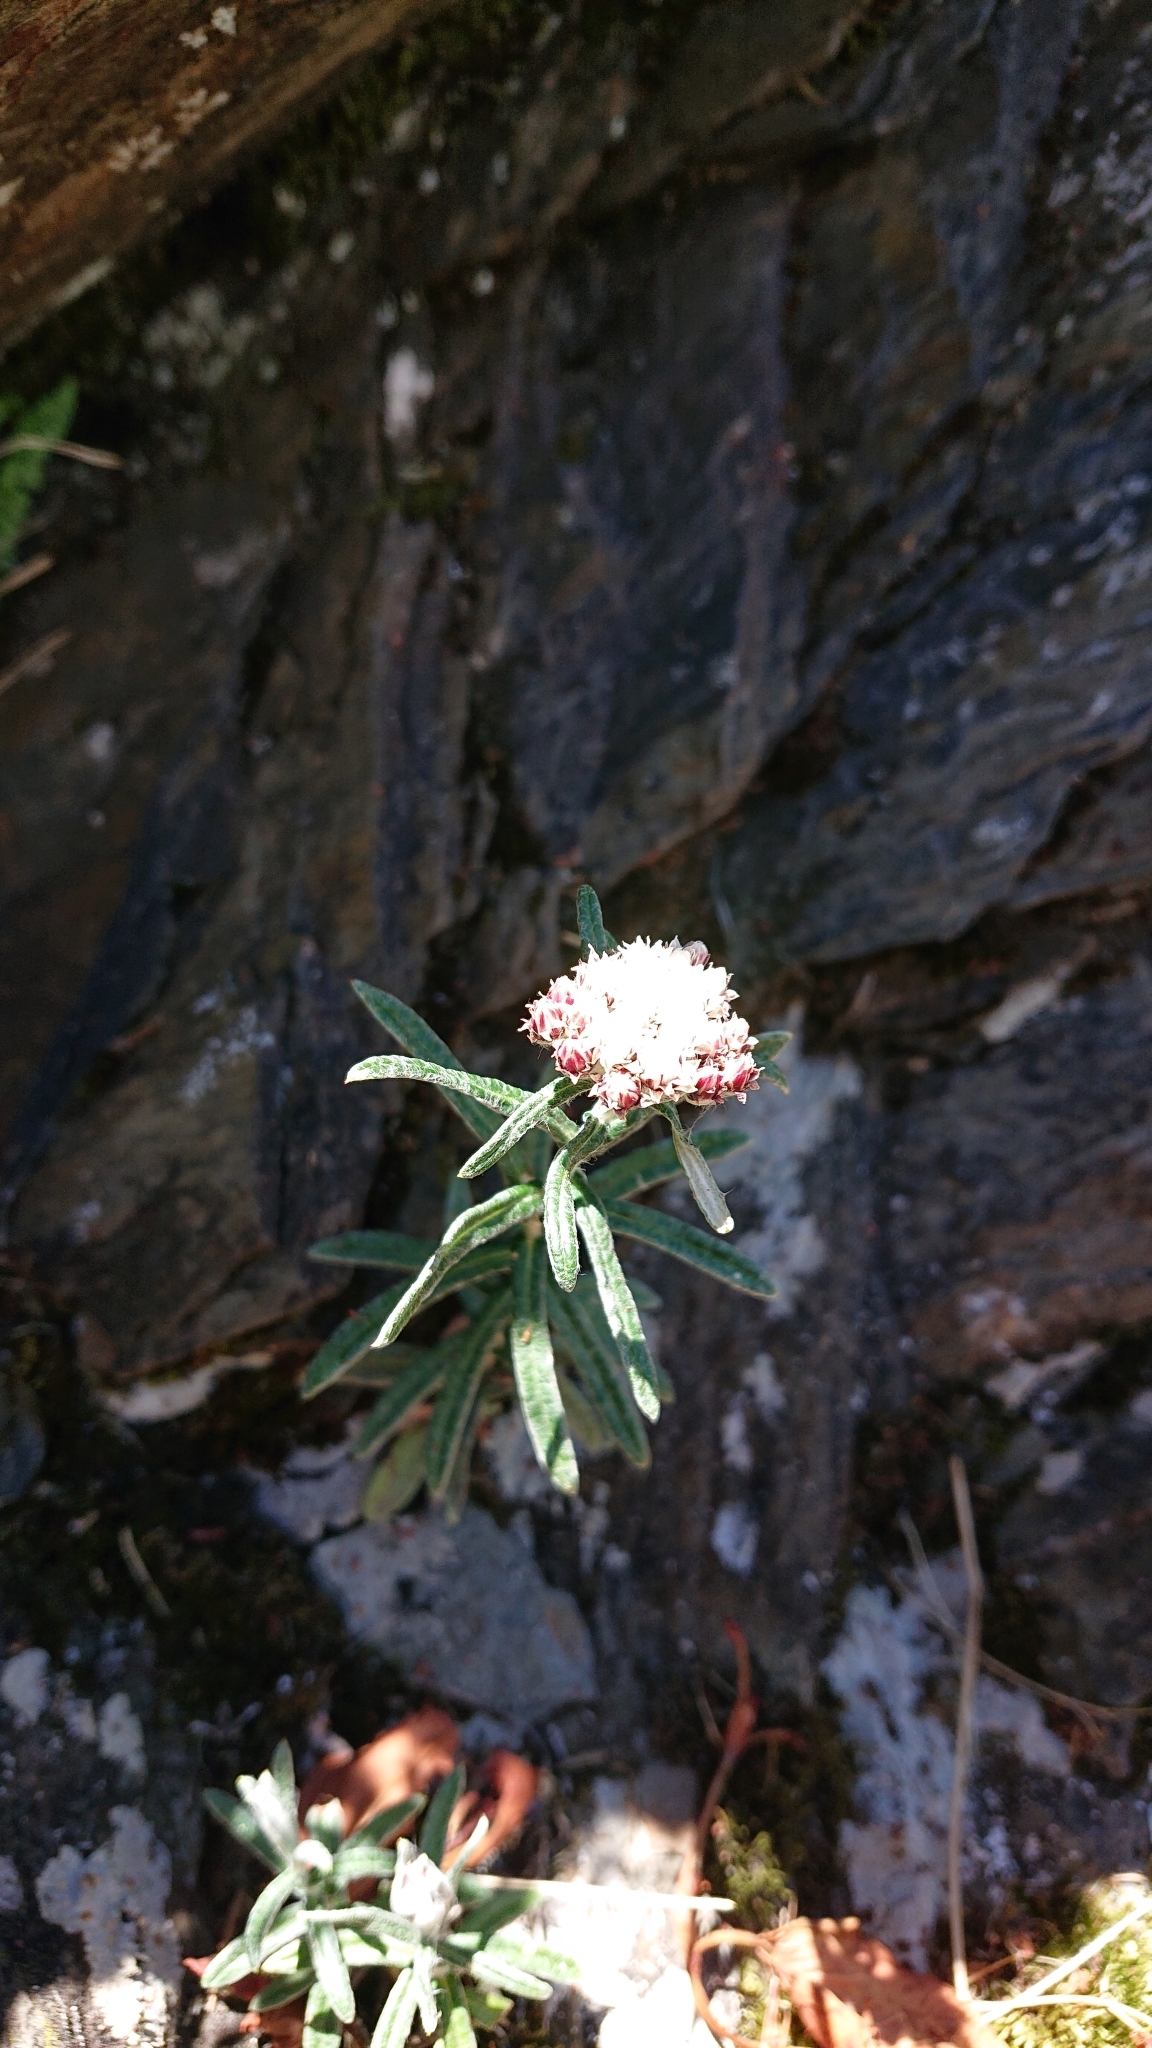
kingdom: Plantae
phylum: Tracheophyta
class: Magnoliopsida
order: Asterales
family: Asteraceae
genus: Anaphalis
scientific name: Anaphalis morrisonicola
